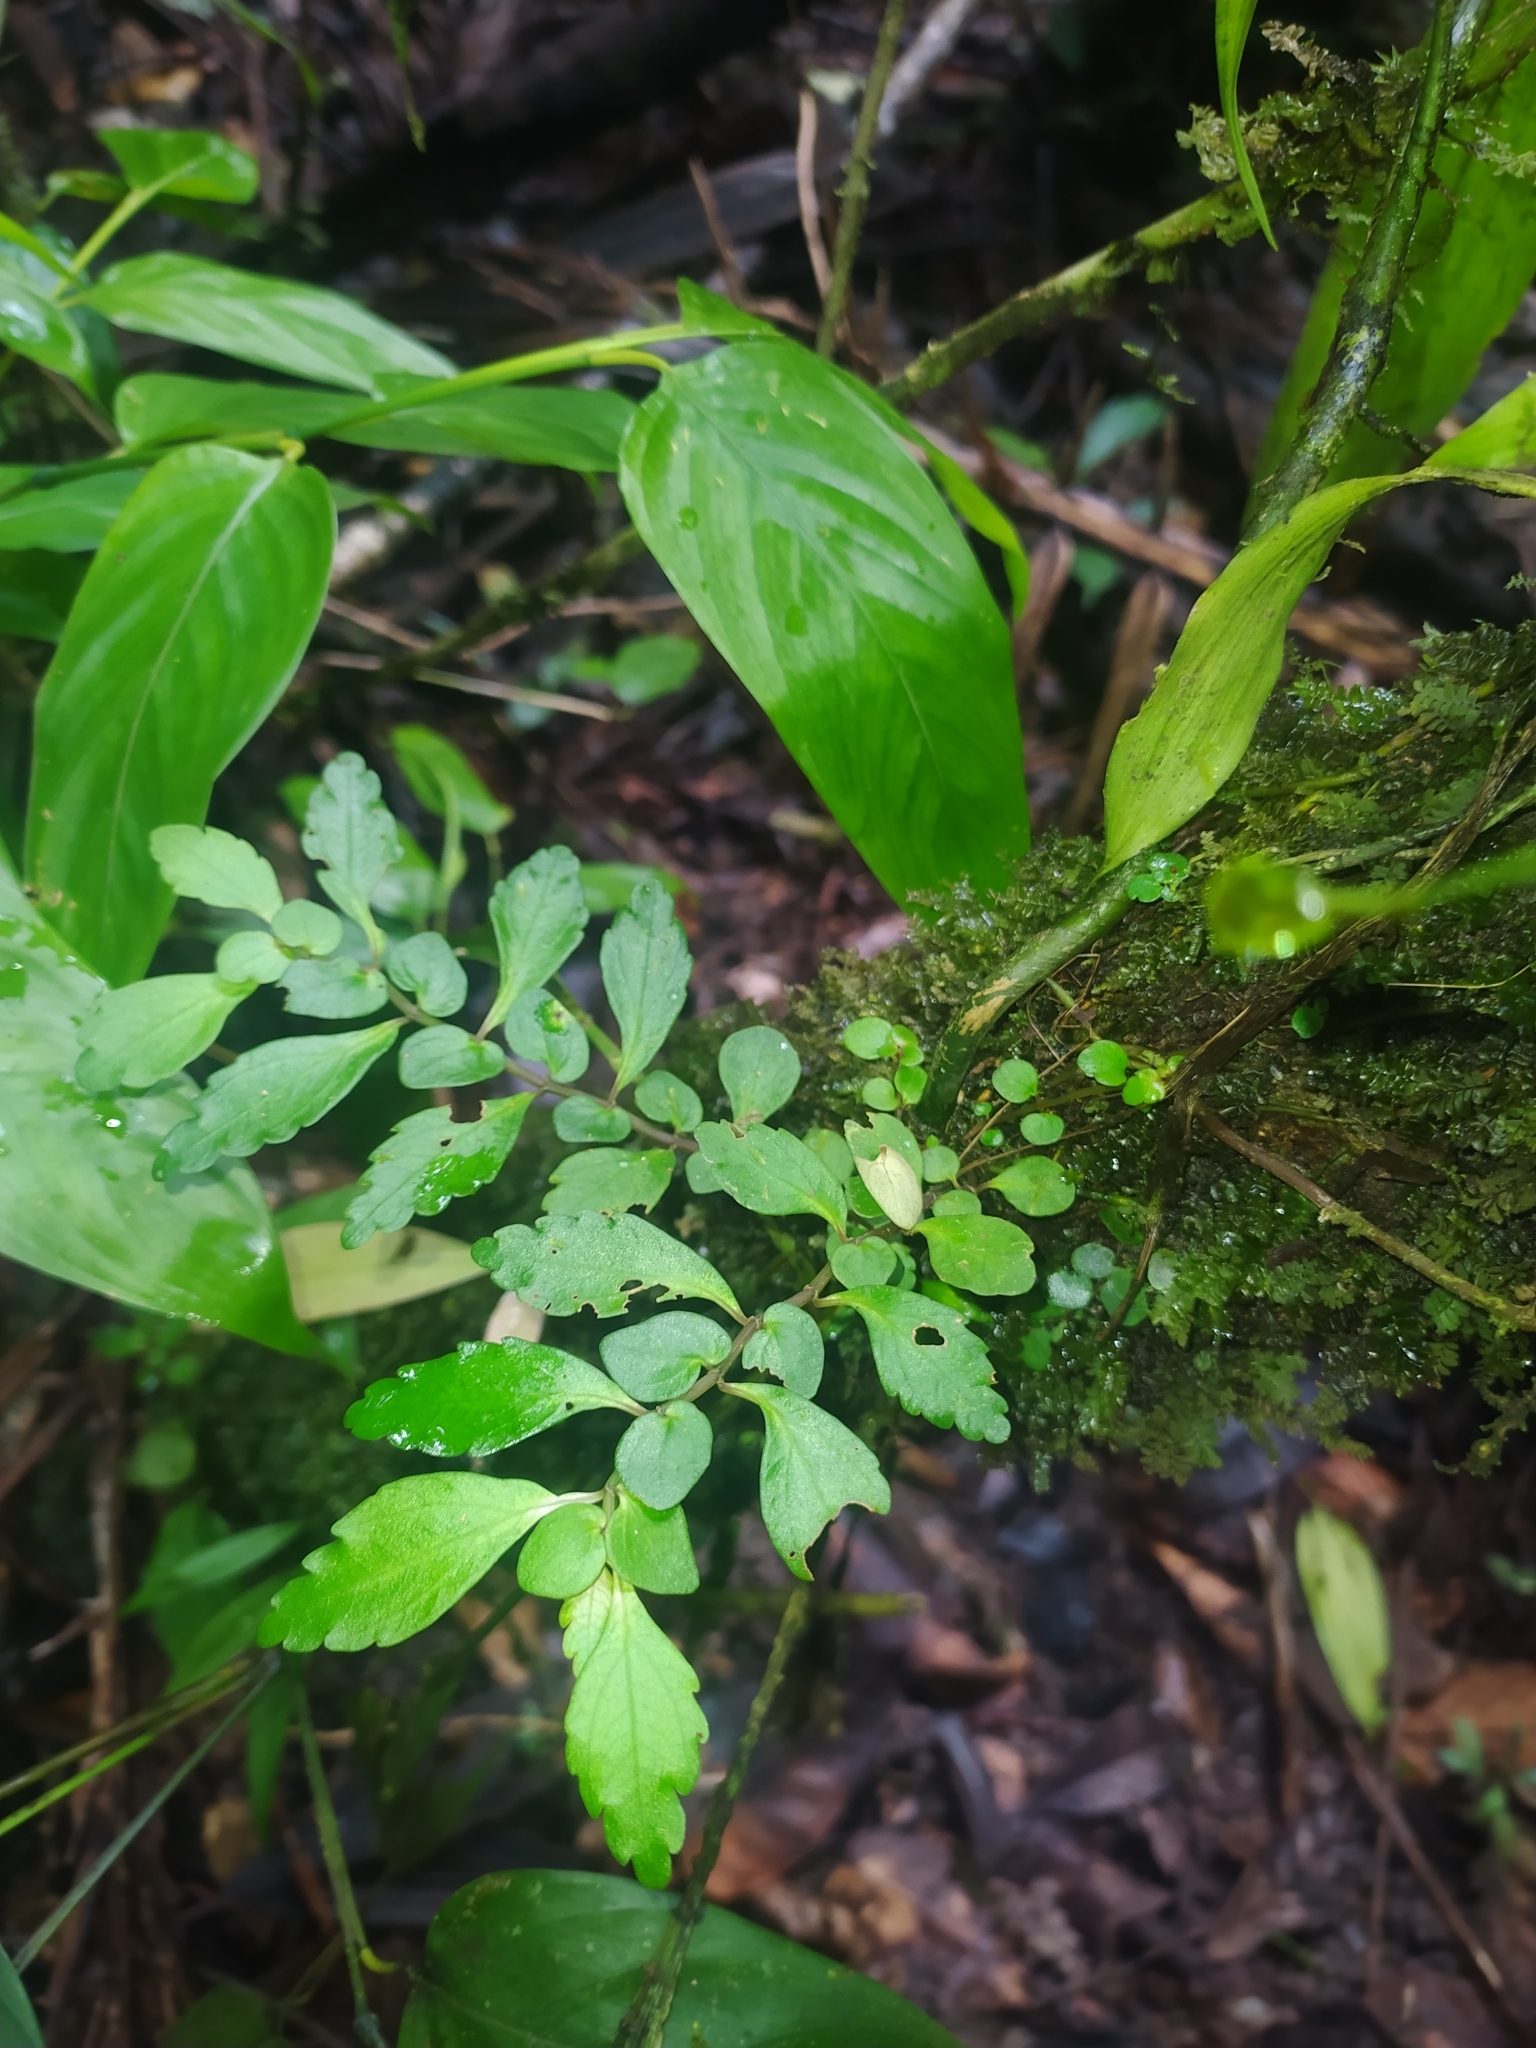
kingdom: Plantae
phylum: Tracheophyta
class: Magnoliopsida
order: Rosales
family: Urticaceae
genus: Pilea
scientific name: Pilea imparifolia
